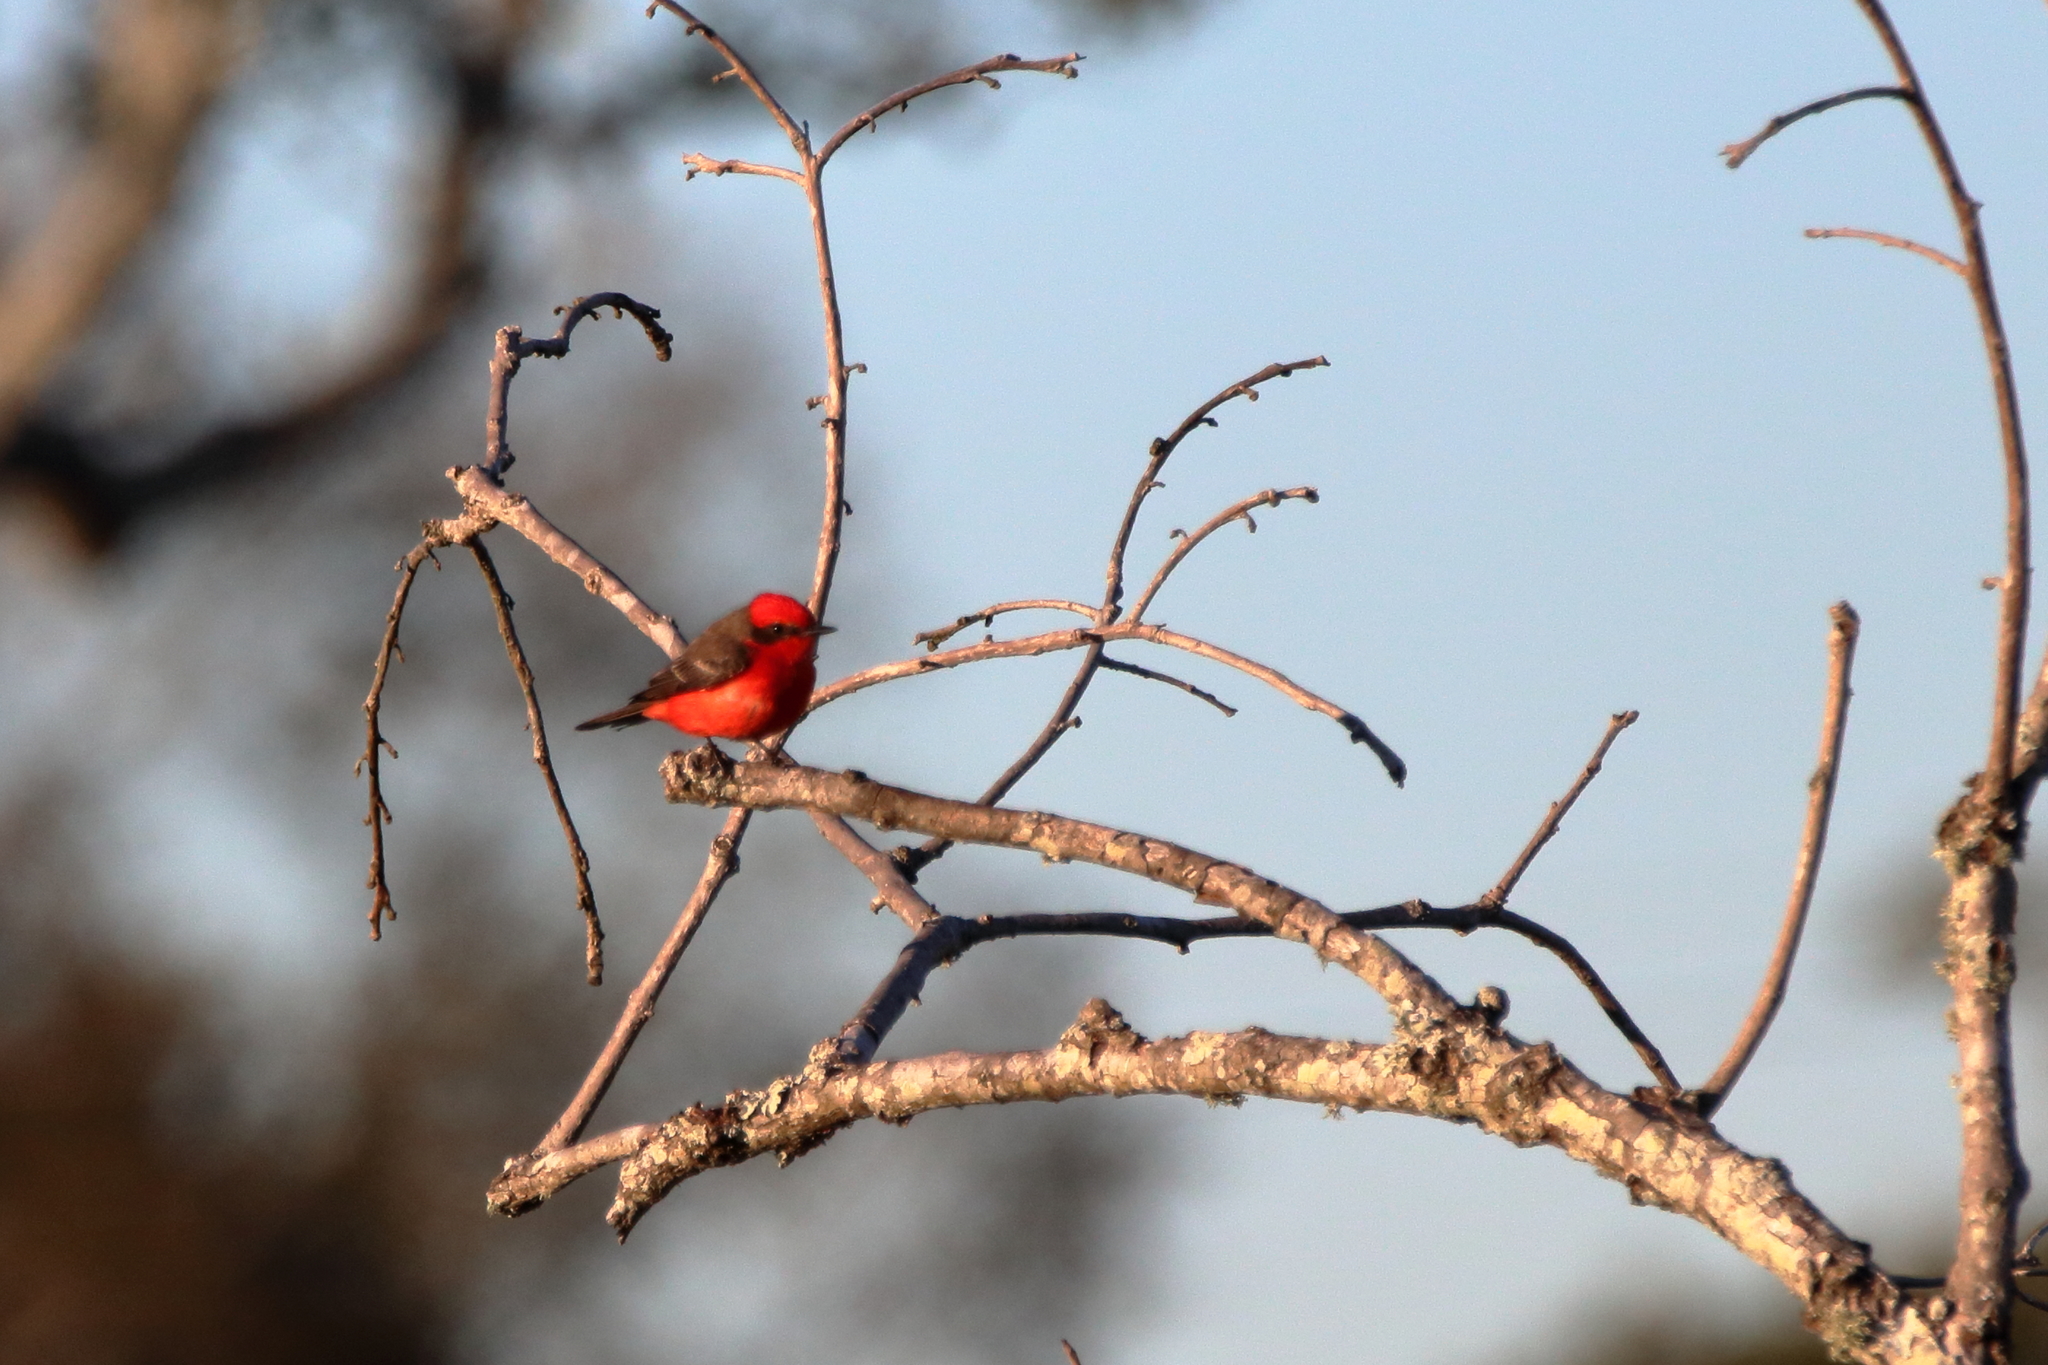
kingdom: Animalia
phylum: Chordata
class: Aves
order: Passeriformes
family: Tyrannidae
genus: Pyrocephalus
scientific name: Pyrocephalus rubinus
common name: Vermilion flycatcher
